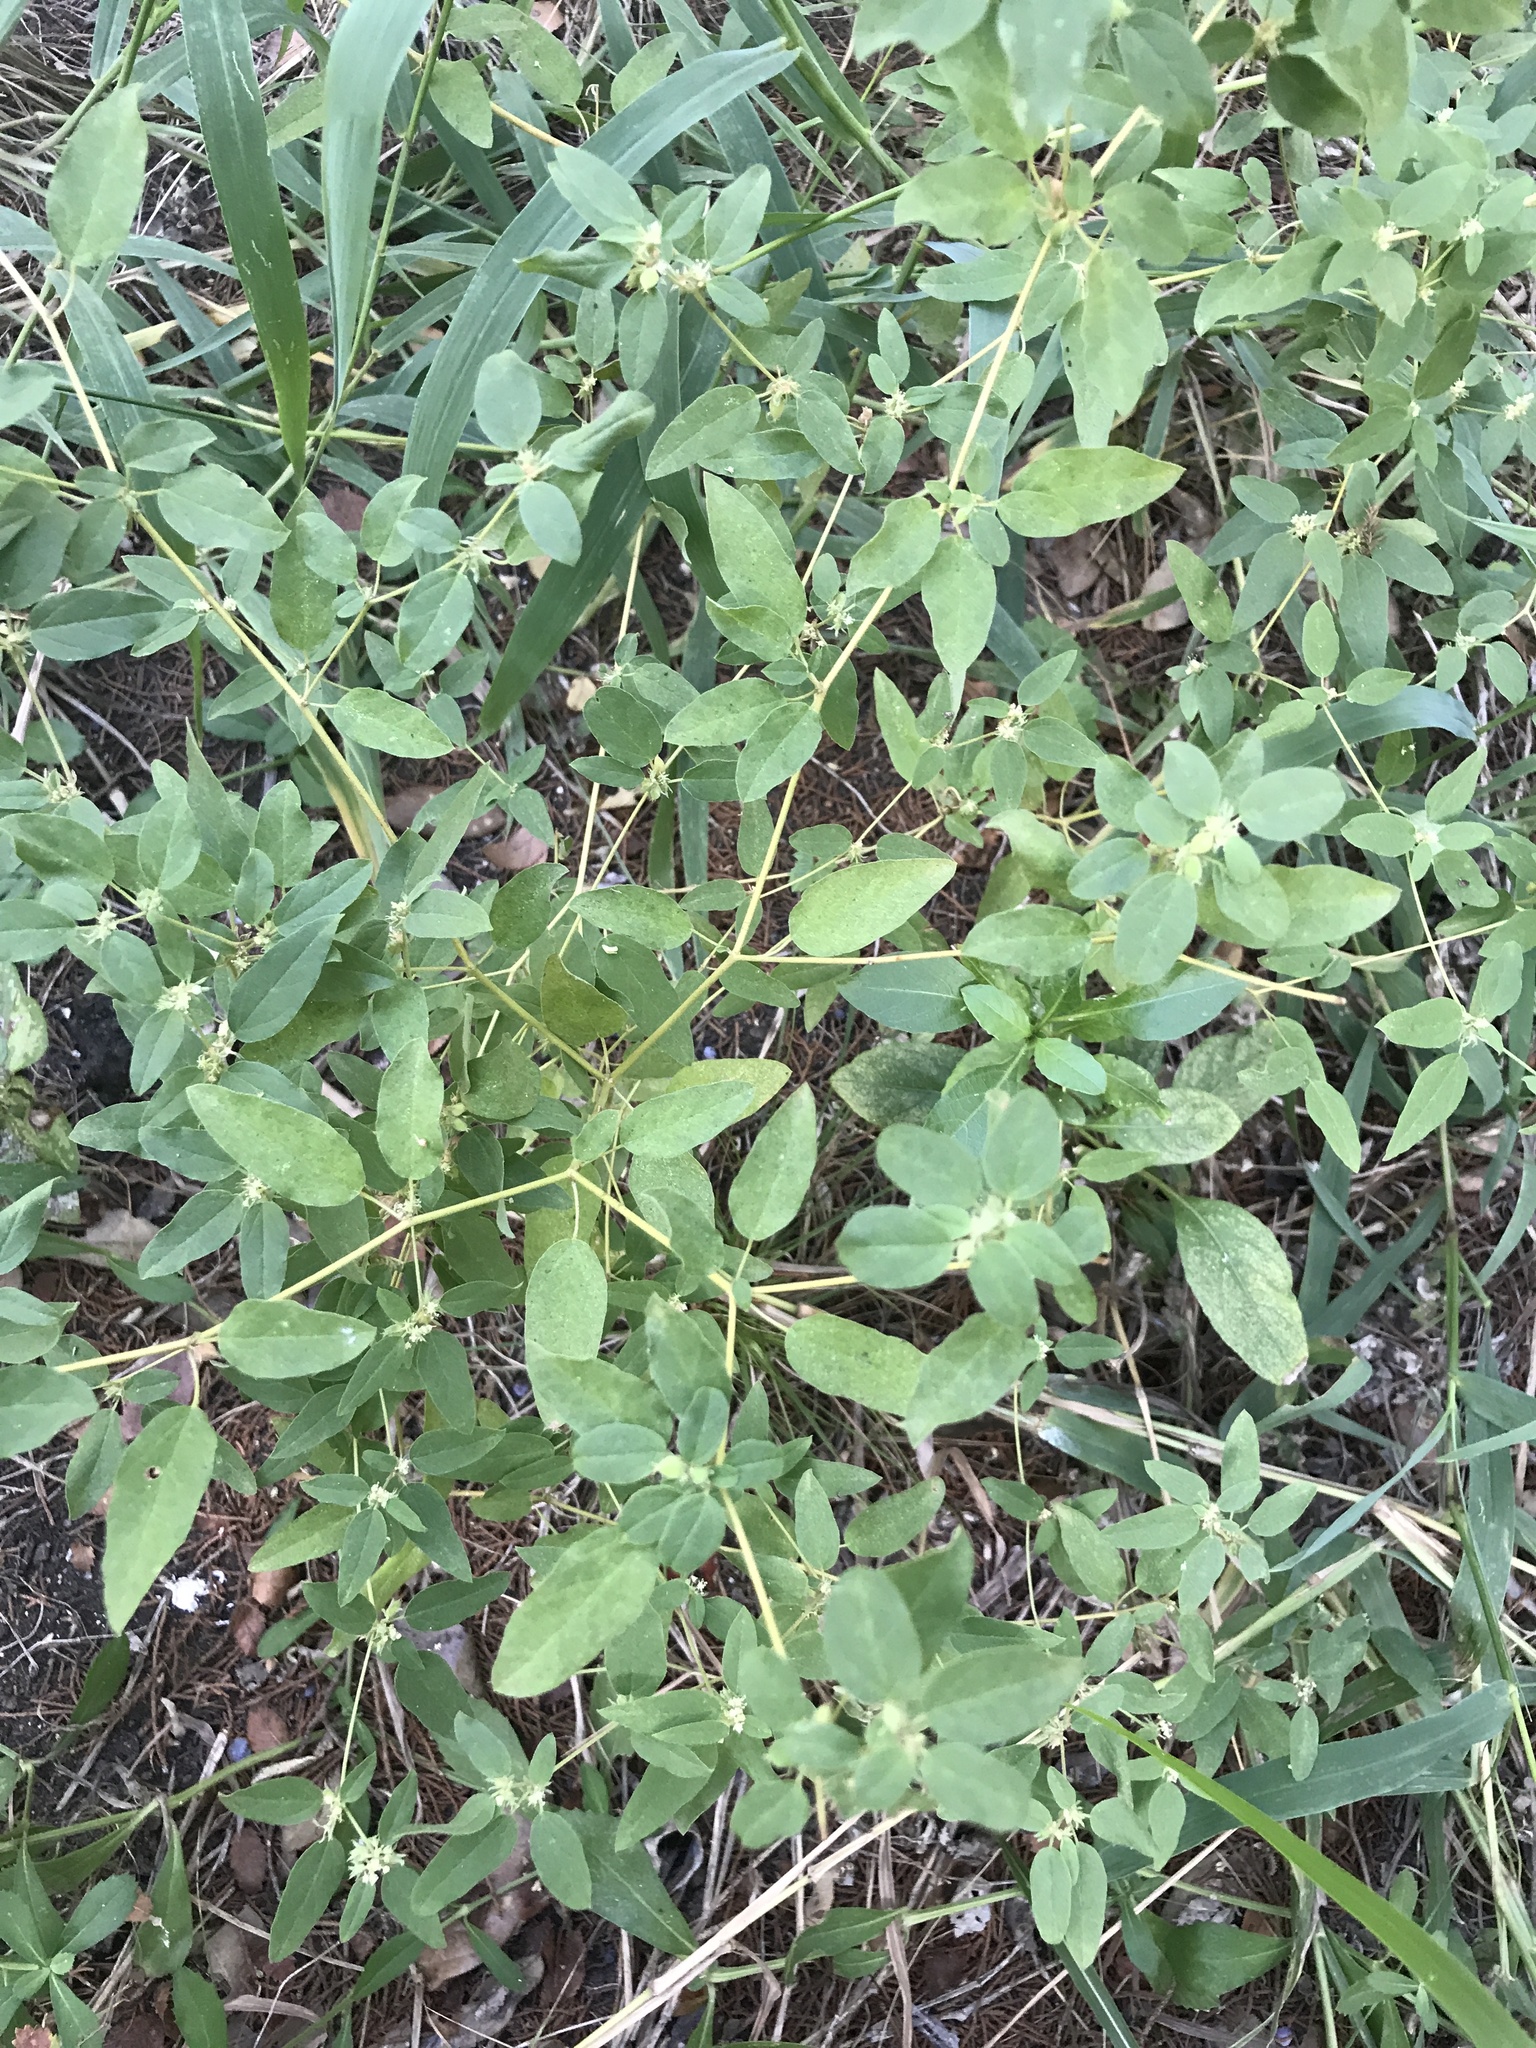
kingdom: Plantae
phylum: Tracheophyta
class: Magnoliopsida
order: Malpighiales
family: Euphorbiaceae
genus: Croton
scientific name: Croton monanthogynus
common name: One-seed croton
